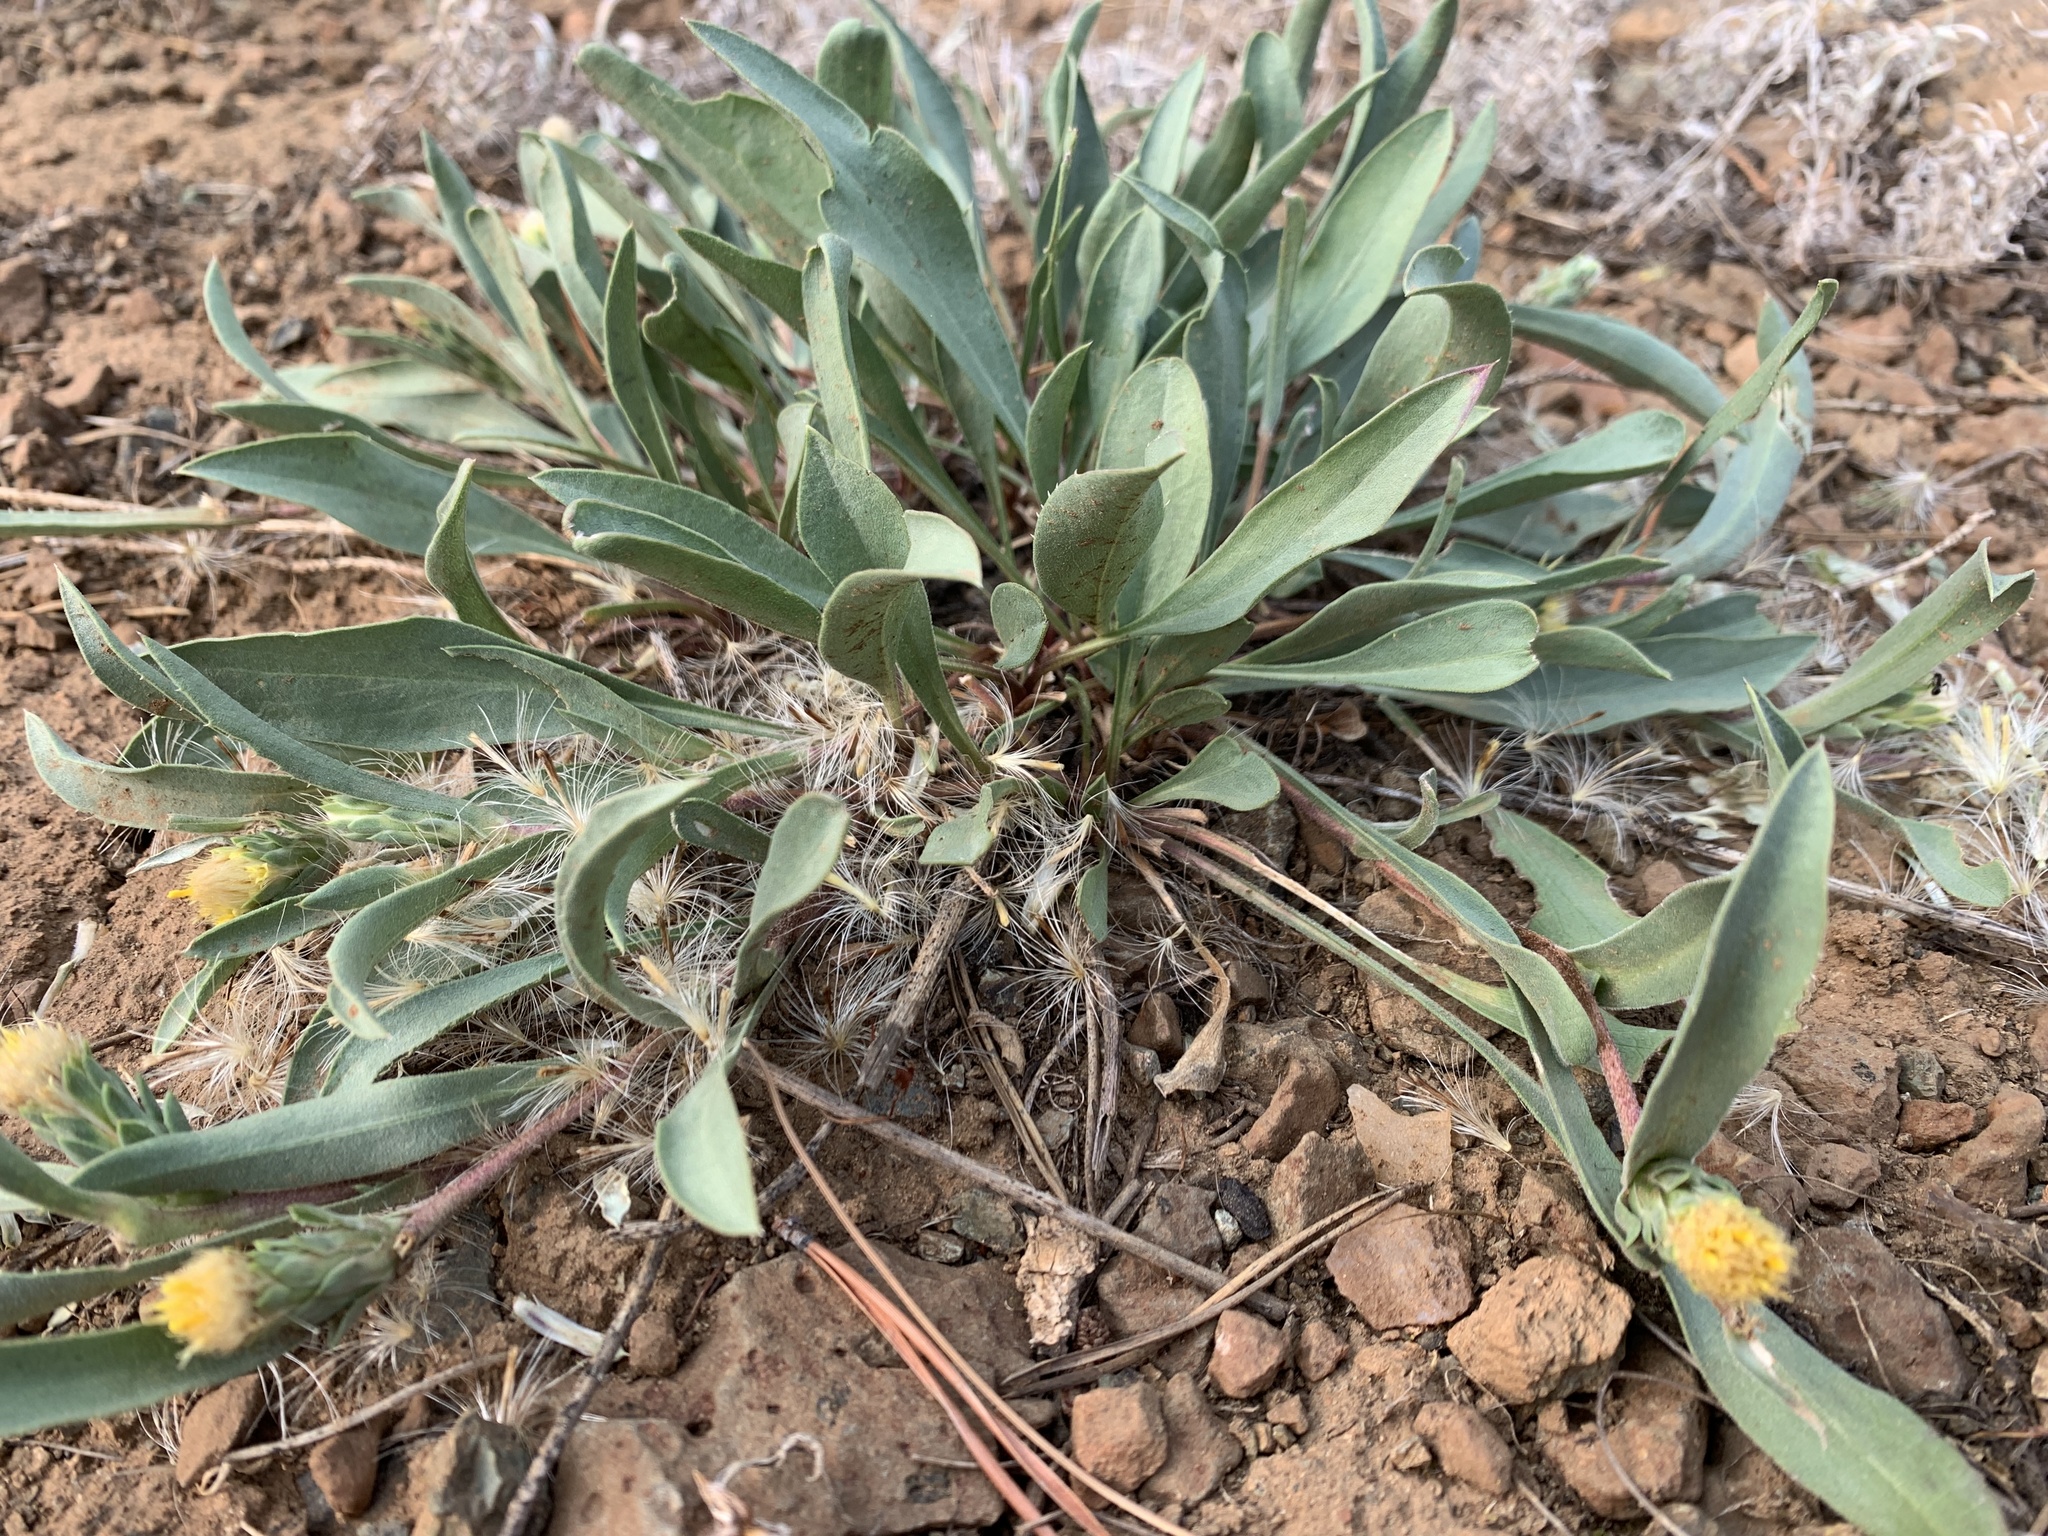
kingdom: Plantae
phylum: Tracheophyta
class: Magnoliopsida
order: Asterales
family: Asteraceae
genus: Pyrrocoma
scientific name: Pyrrocoma carthamoides
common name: Large-flower goldenweed
